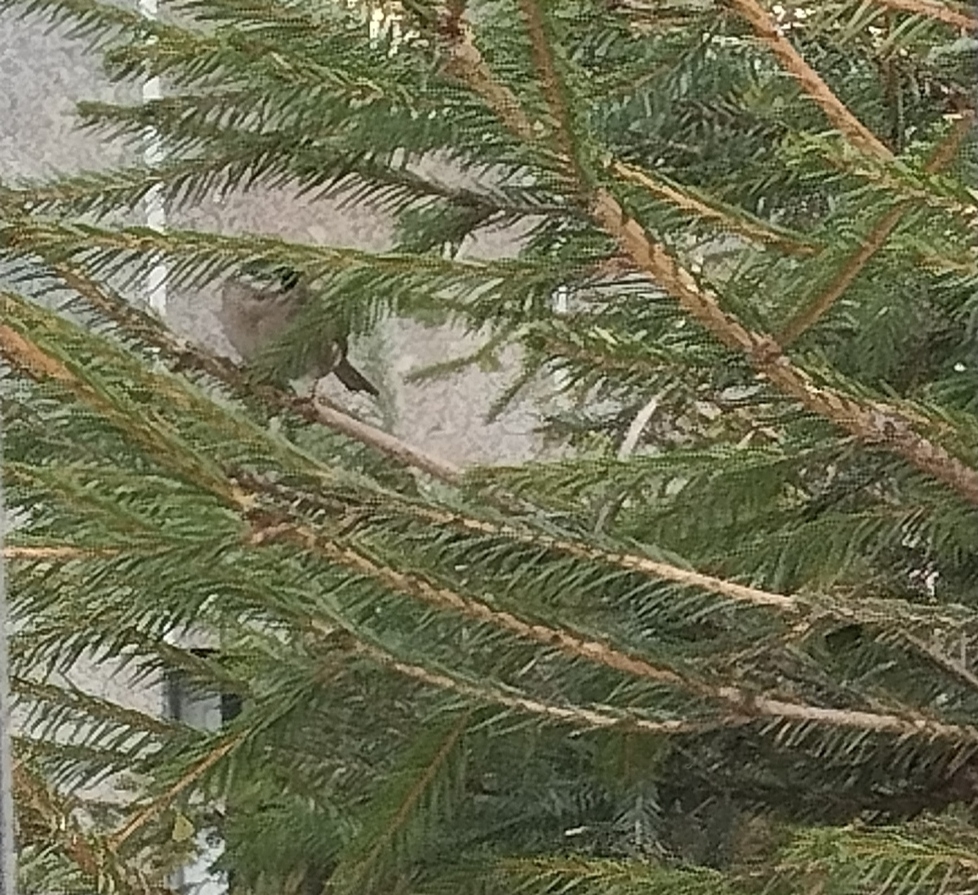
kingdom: Animalia
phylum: Chordata
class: Aves
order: Passeriformes
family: Passeridae
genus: Passer
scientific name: Passer montanus
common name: Eurasian tree sparrow
